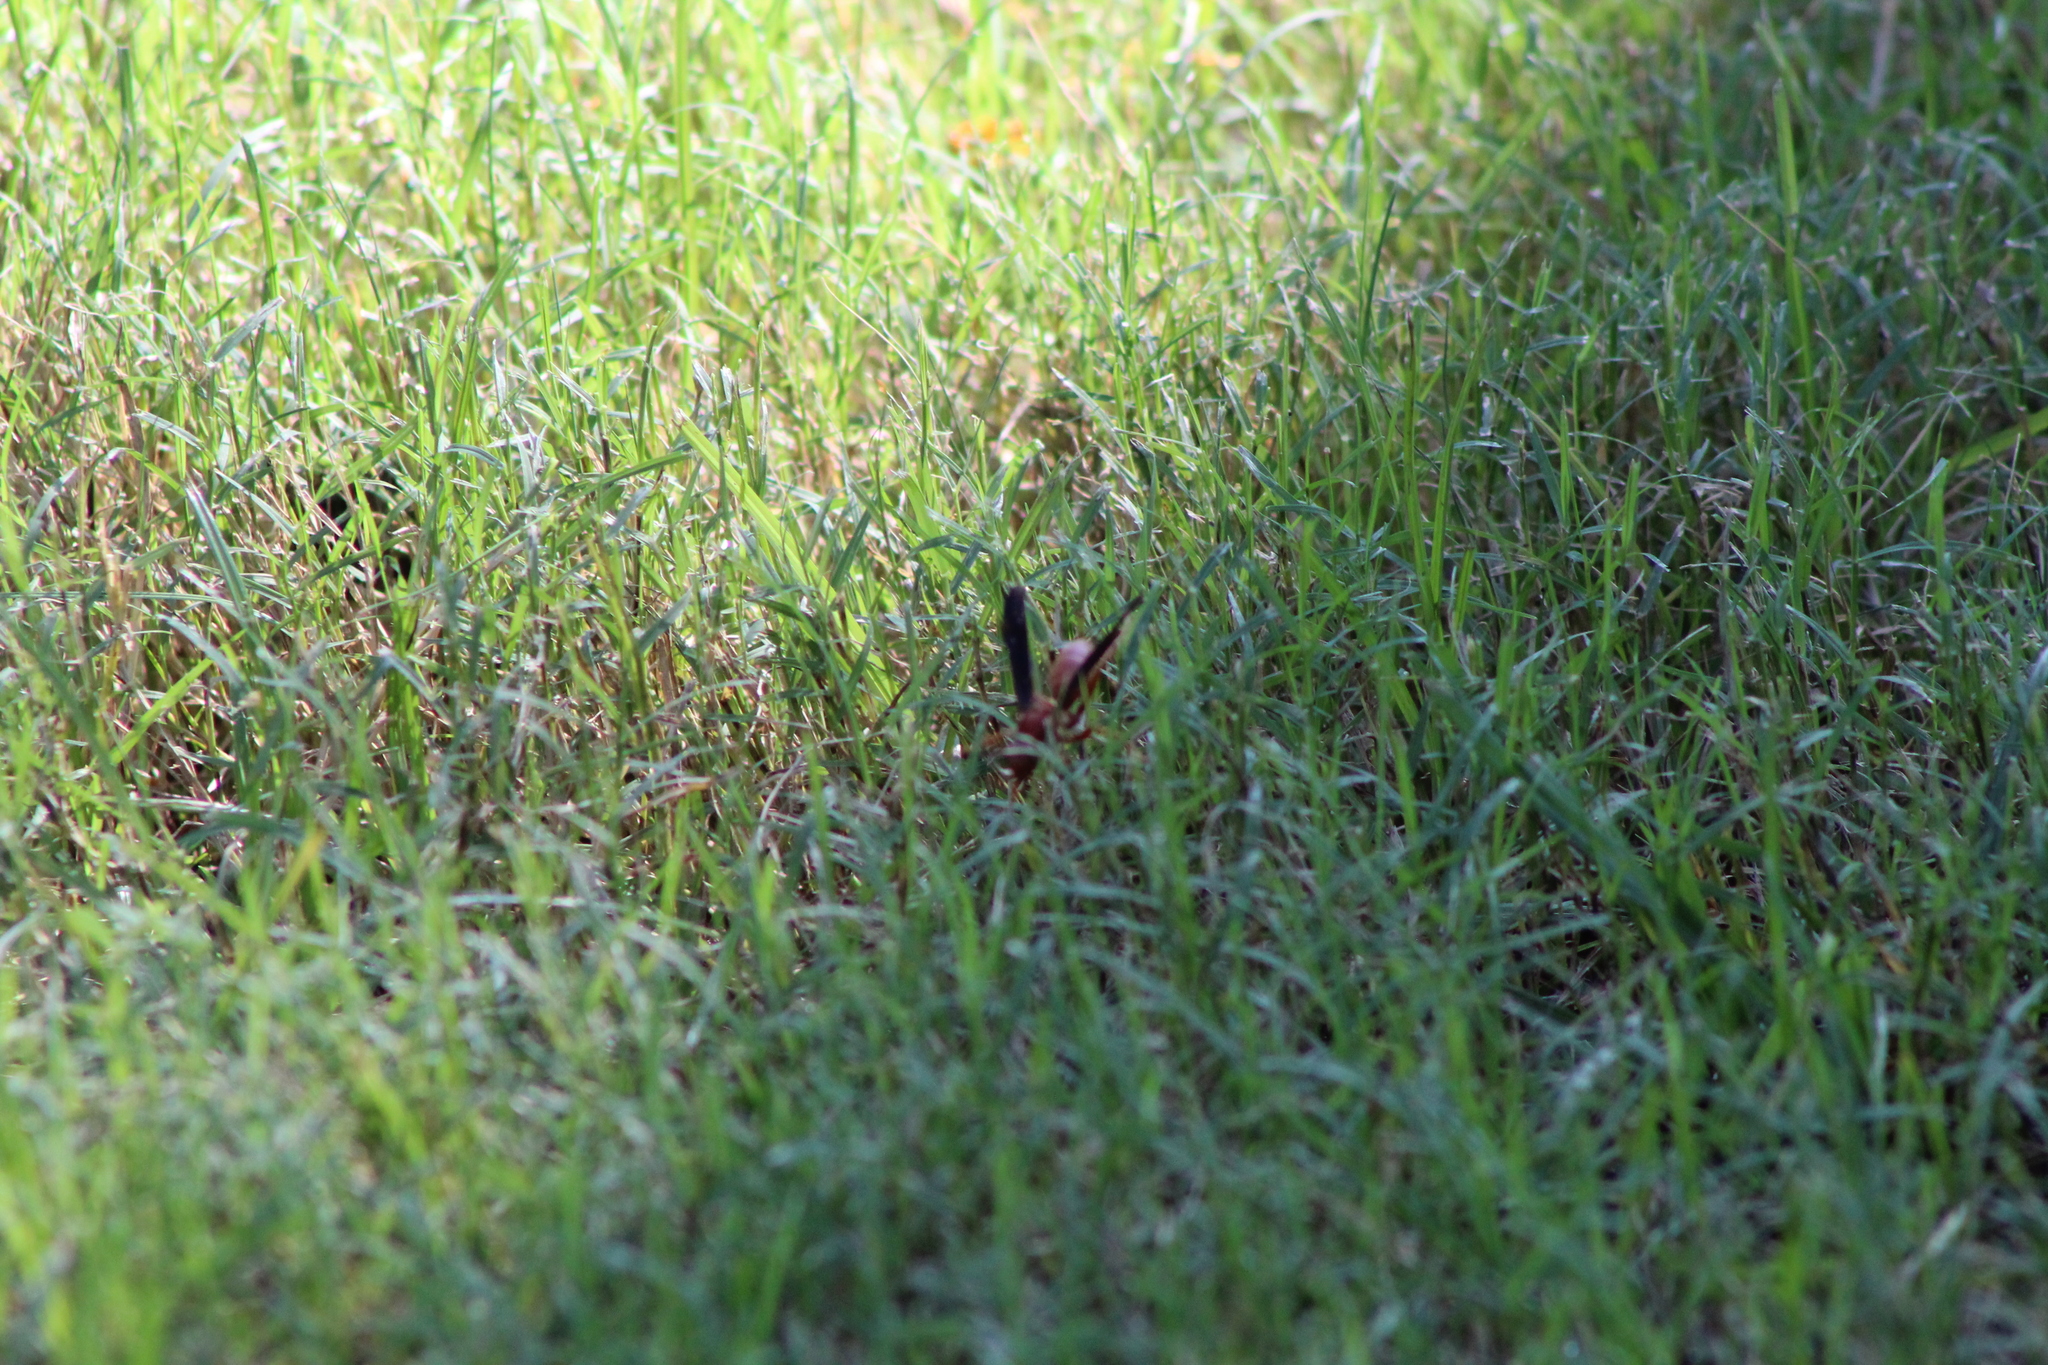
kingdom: Animalia
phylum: Arthropoda
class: Insecta
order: Hymenoptera
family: Vespidae
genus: Fuscopolistes
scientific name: Fuscopolistes
